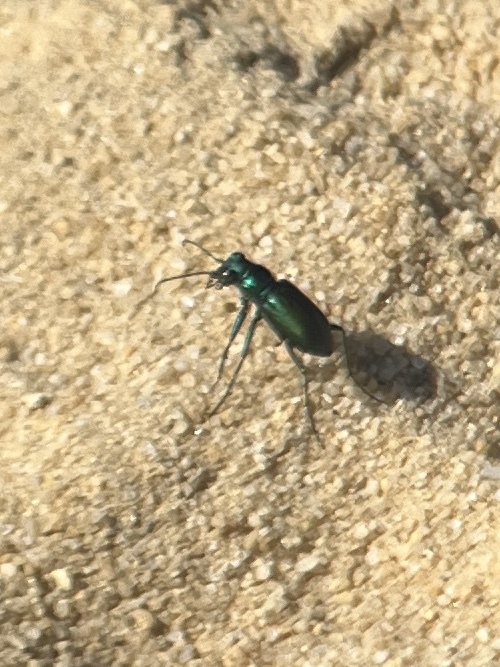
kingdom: Animalia
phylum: Arthropoda
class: Insecta
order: Coleoptera
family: Carabidae
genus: Cicindela
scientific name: Cicindela nigrior
